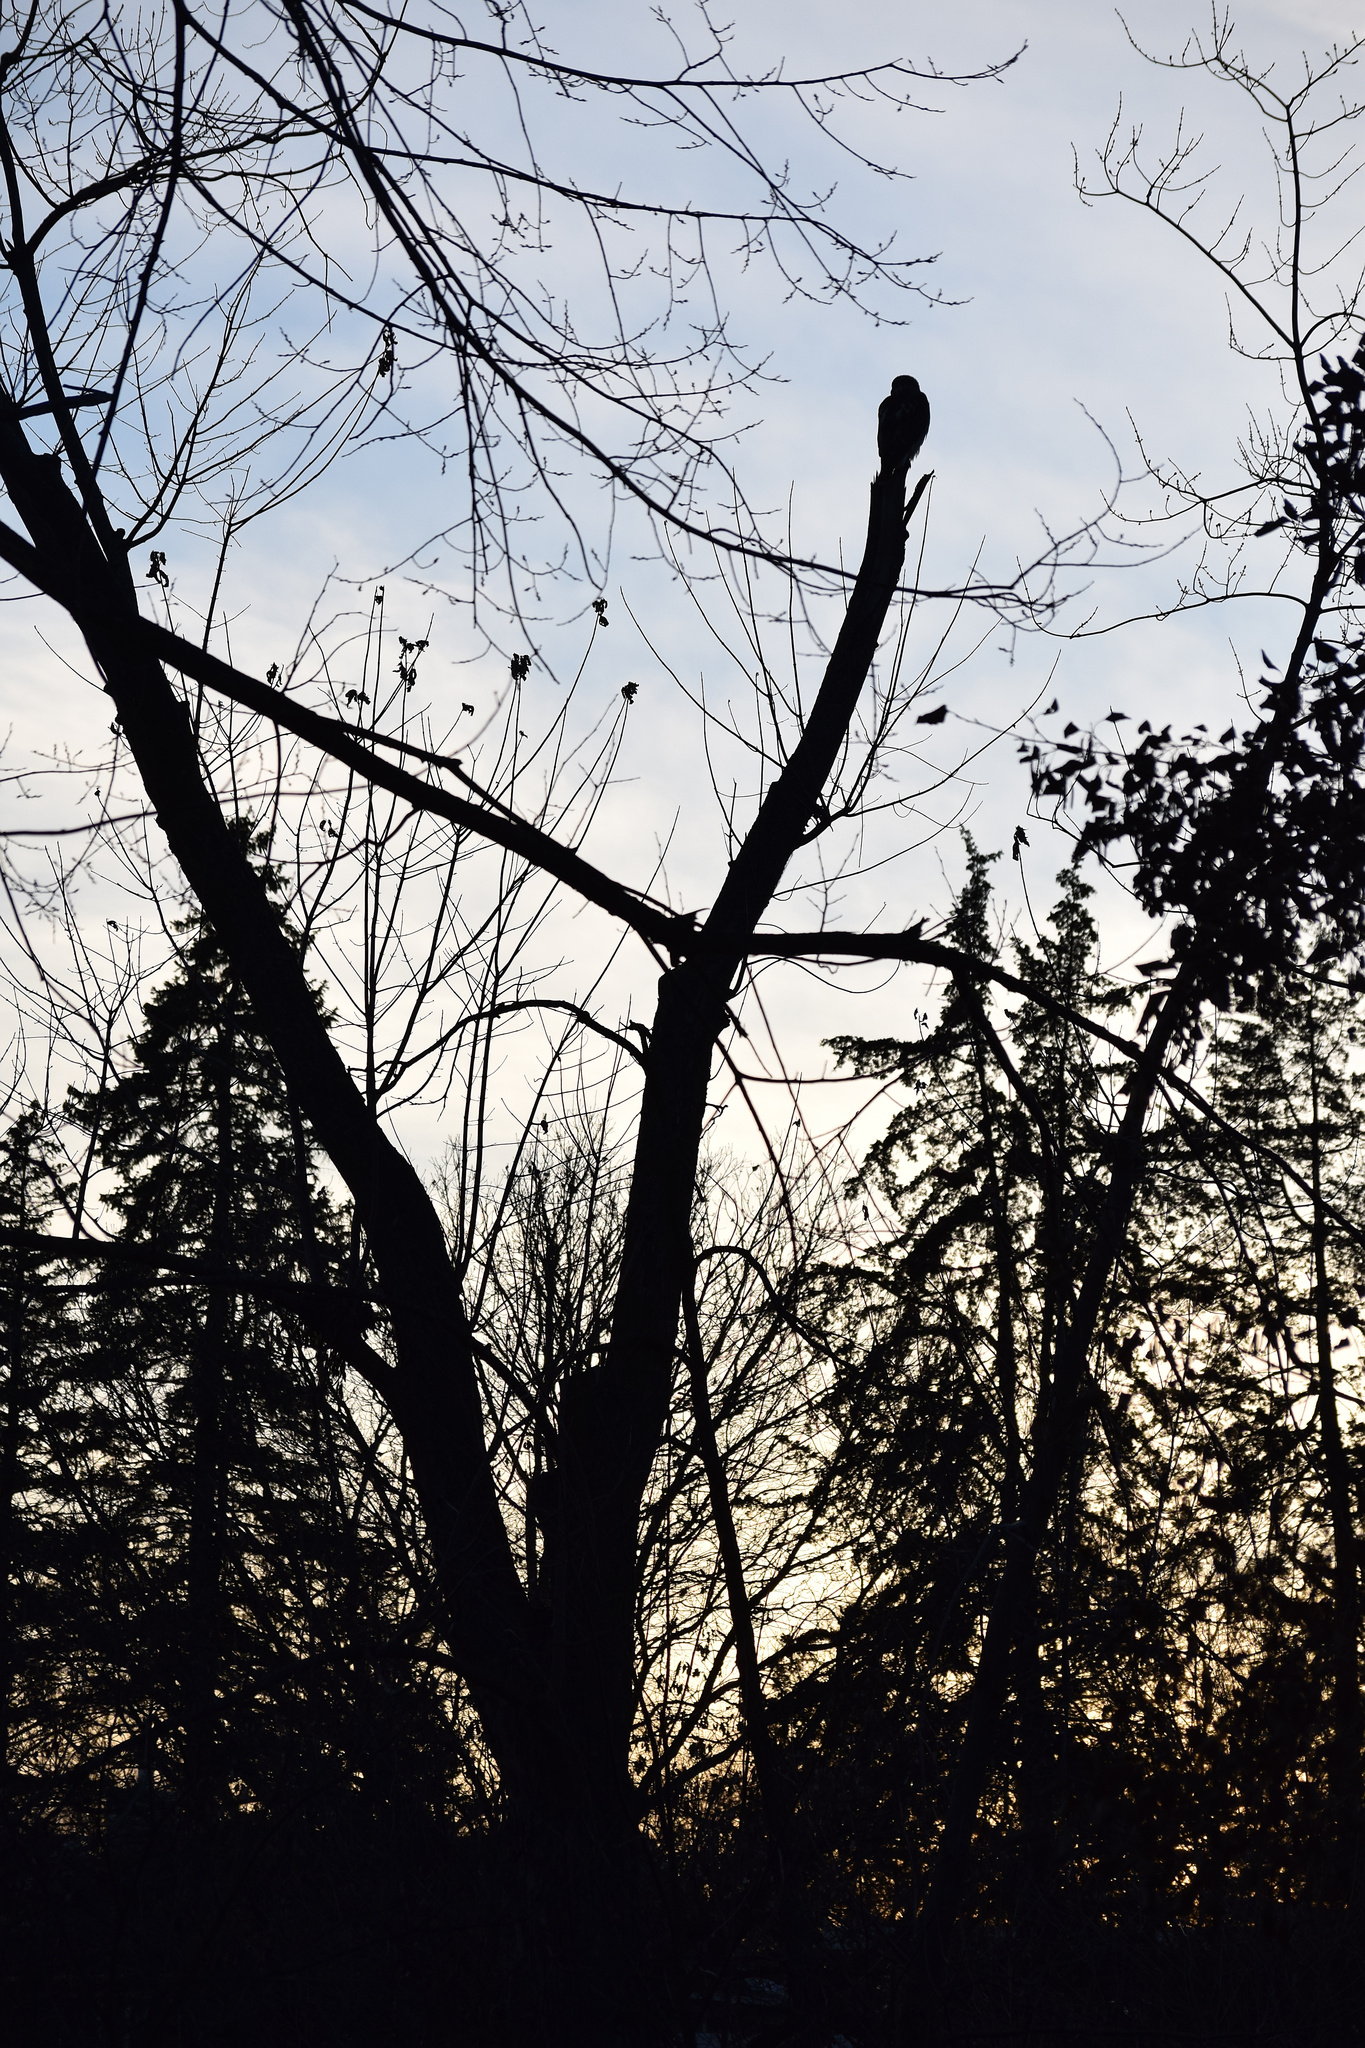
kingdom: Animalia
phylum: Chordata
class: Aves
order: Accipitriformes
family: Accipitridae
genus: Buteo
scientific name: Buteo jamaicensis
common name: Red-tailed hawk
